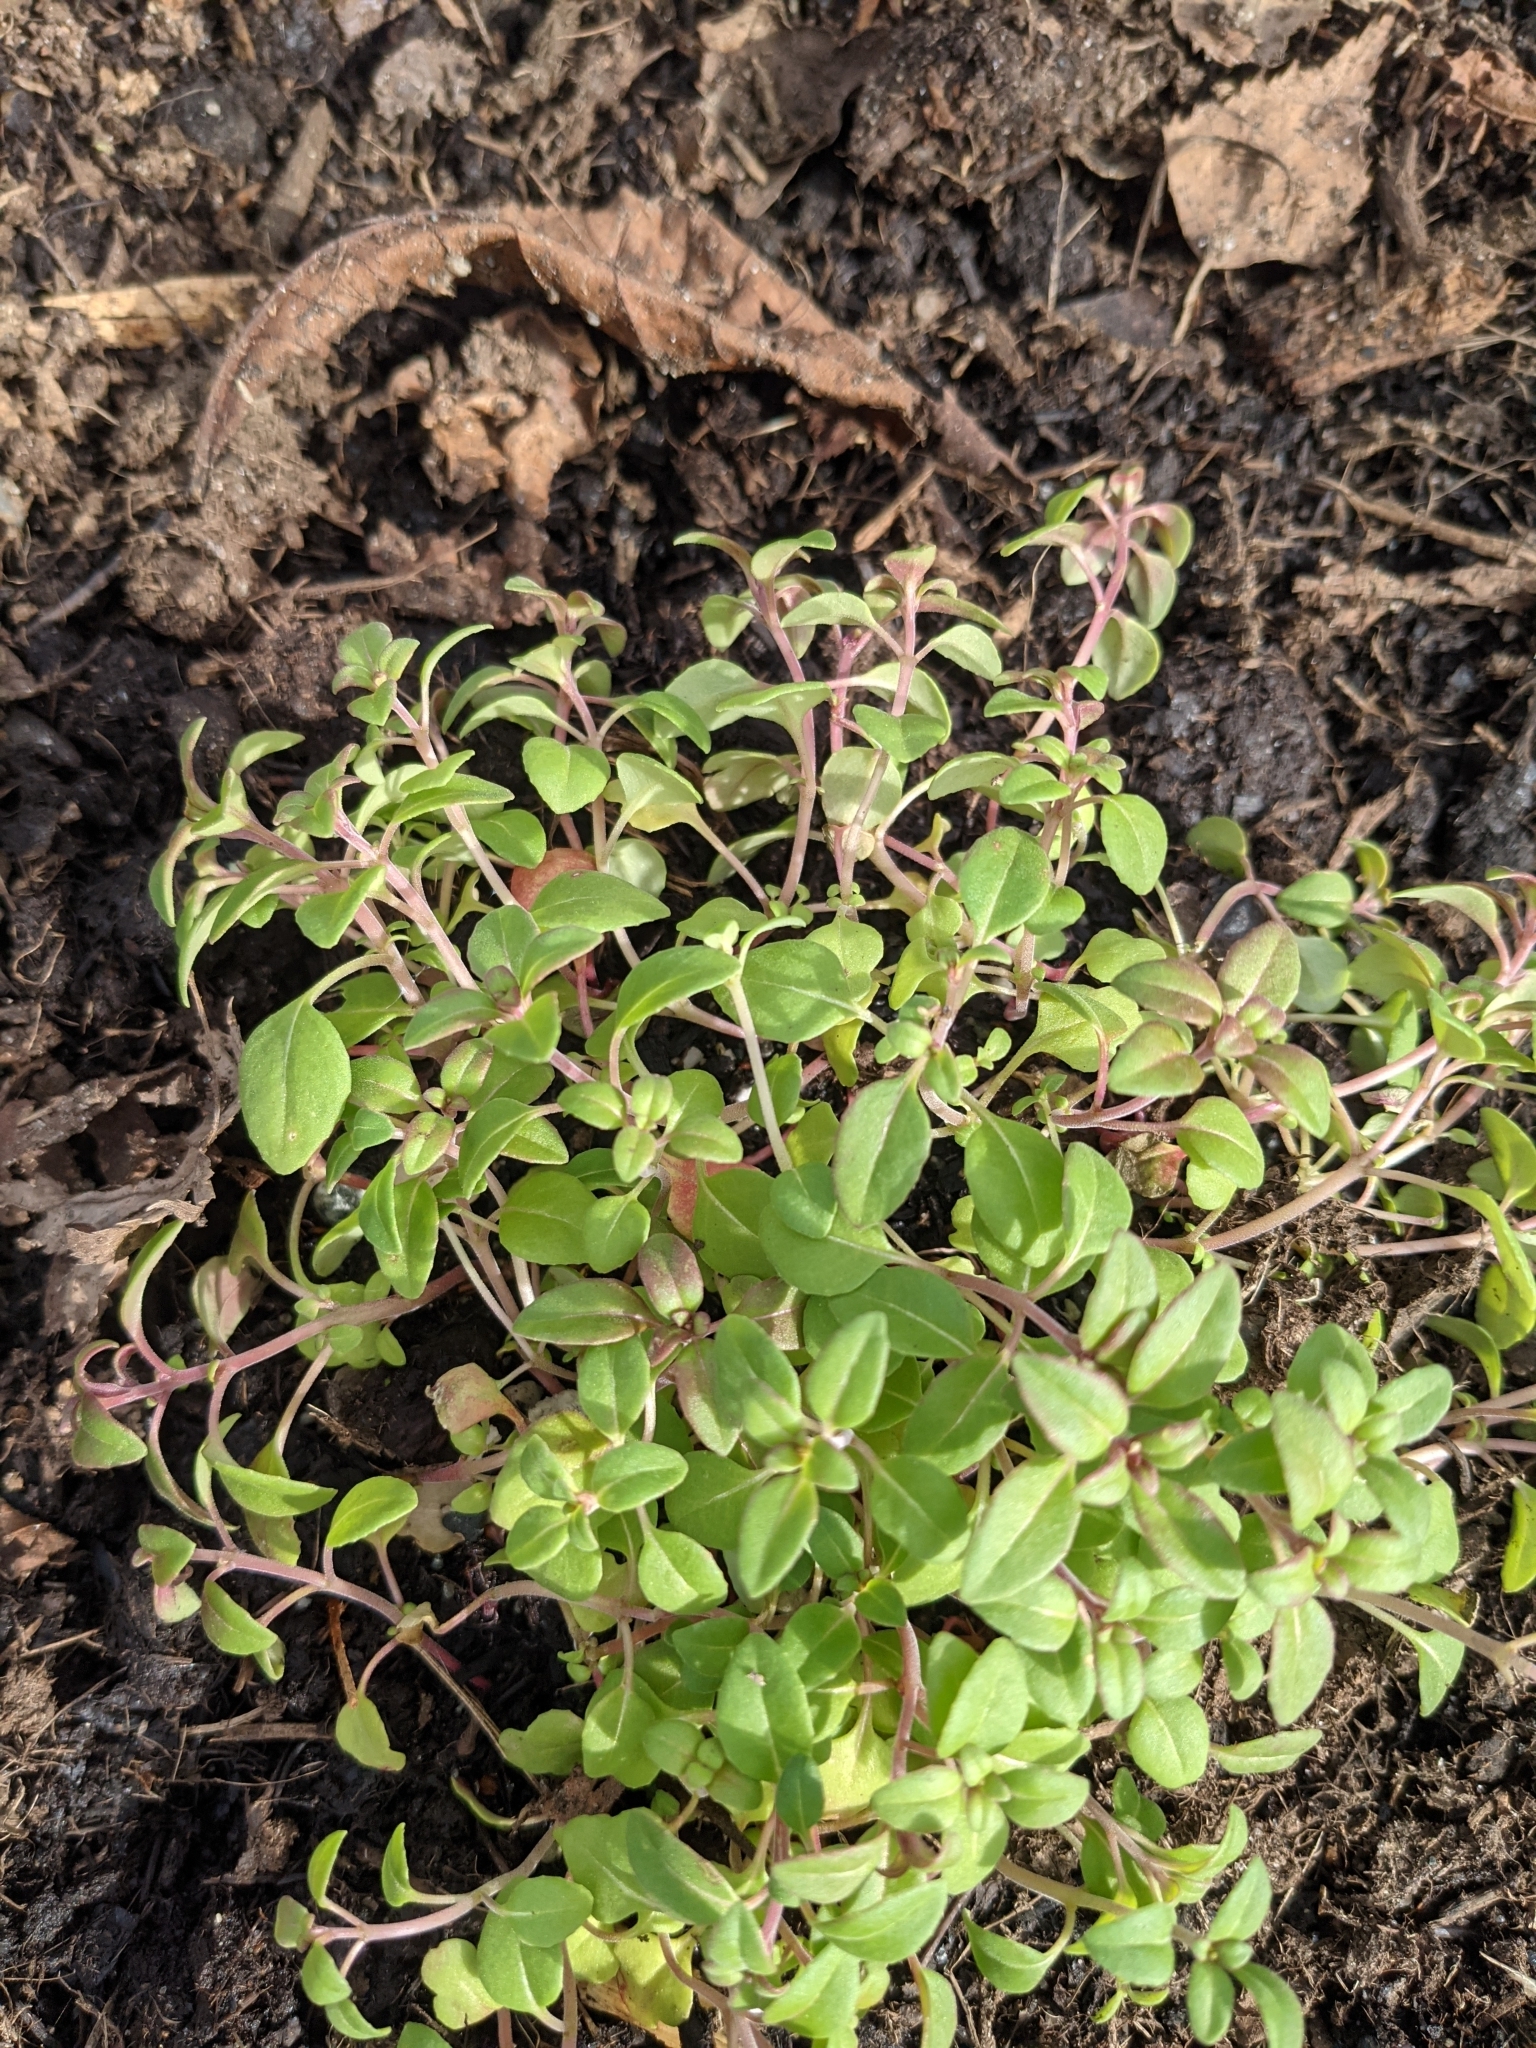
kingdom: Plantae
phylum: Tracheophyta
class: Magnoliopsida
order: Myrtales
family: Onagraceae
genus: Clarkia
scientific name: Clarkia amoena
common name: Godetia
